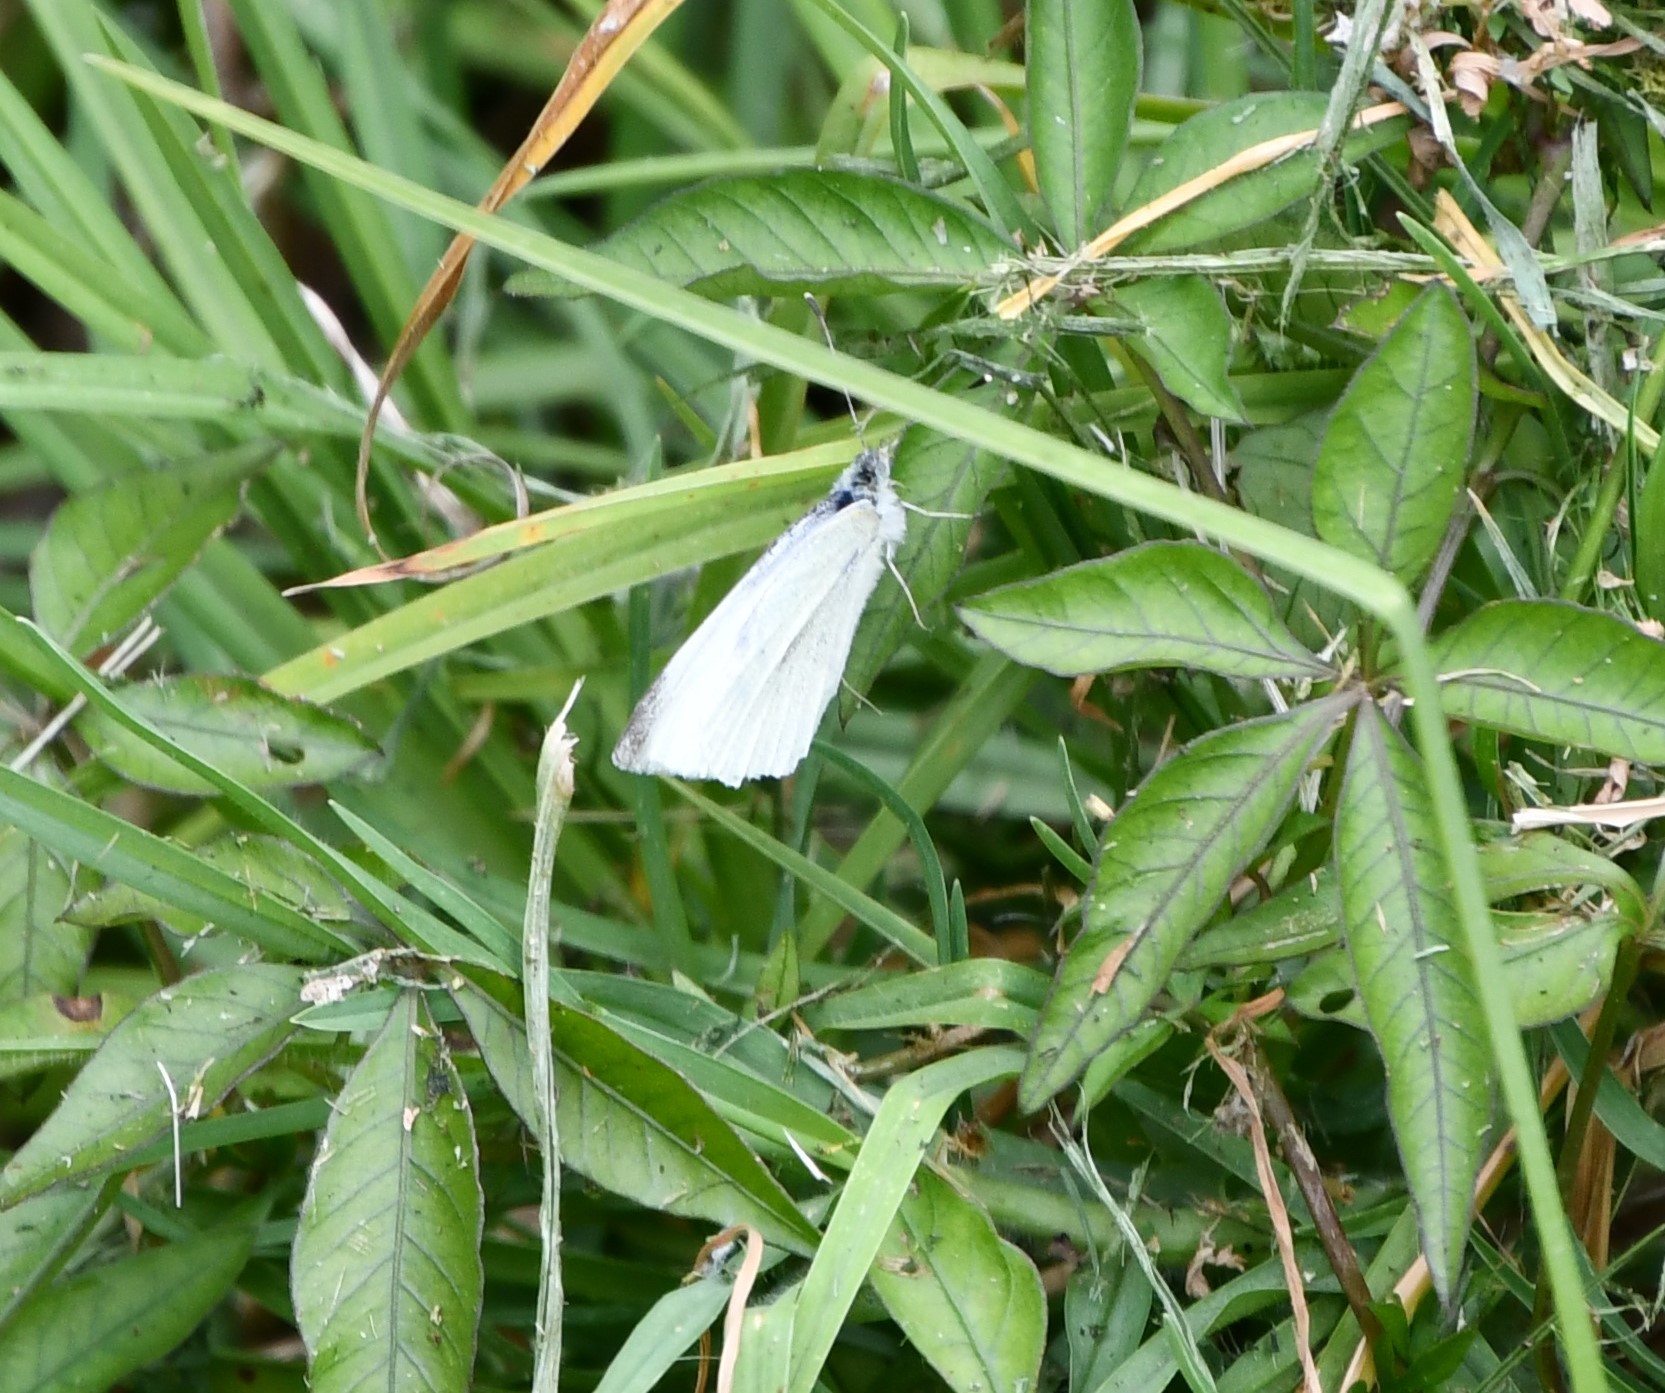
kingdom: Animalia
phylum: Arthropoda
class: Insecta
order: Lepidoptera
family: Pieridae
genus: Pieris
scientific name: Pieris rapae
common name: Small white
